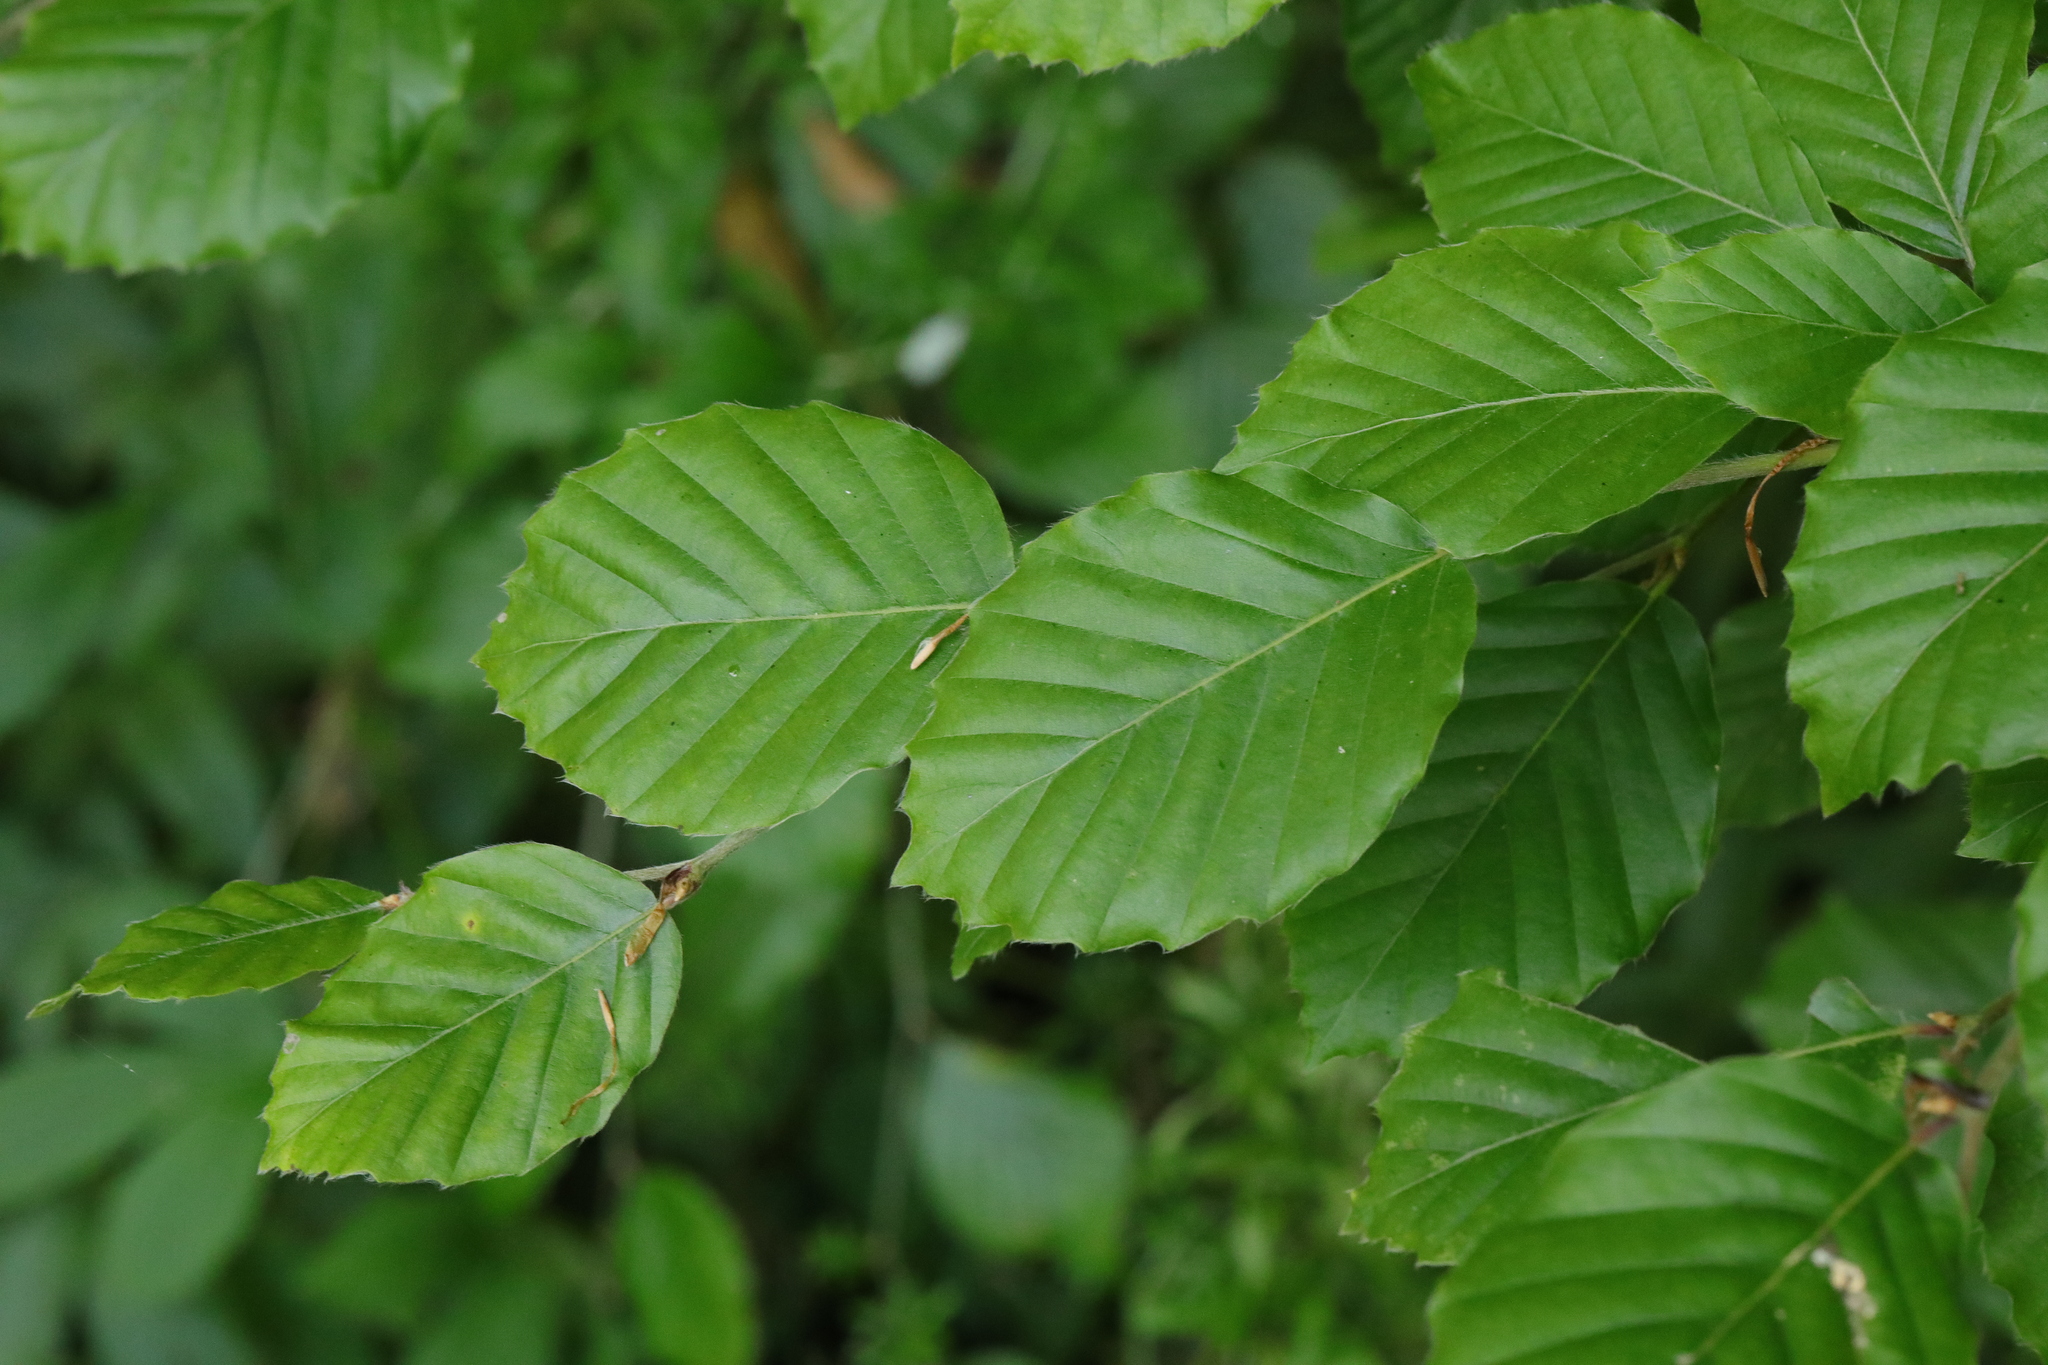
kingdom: Plantae
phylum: Tracheophyta
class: Magnoliopsida
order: Fagales
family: Fagaceae
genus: Fagus
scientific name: Fagus sylvatica
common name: Beech
